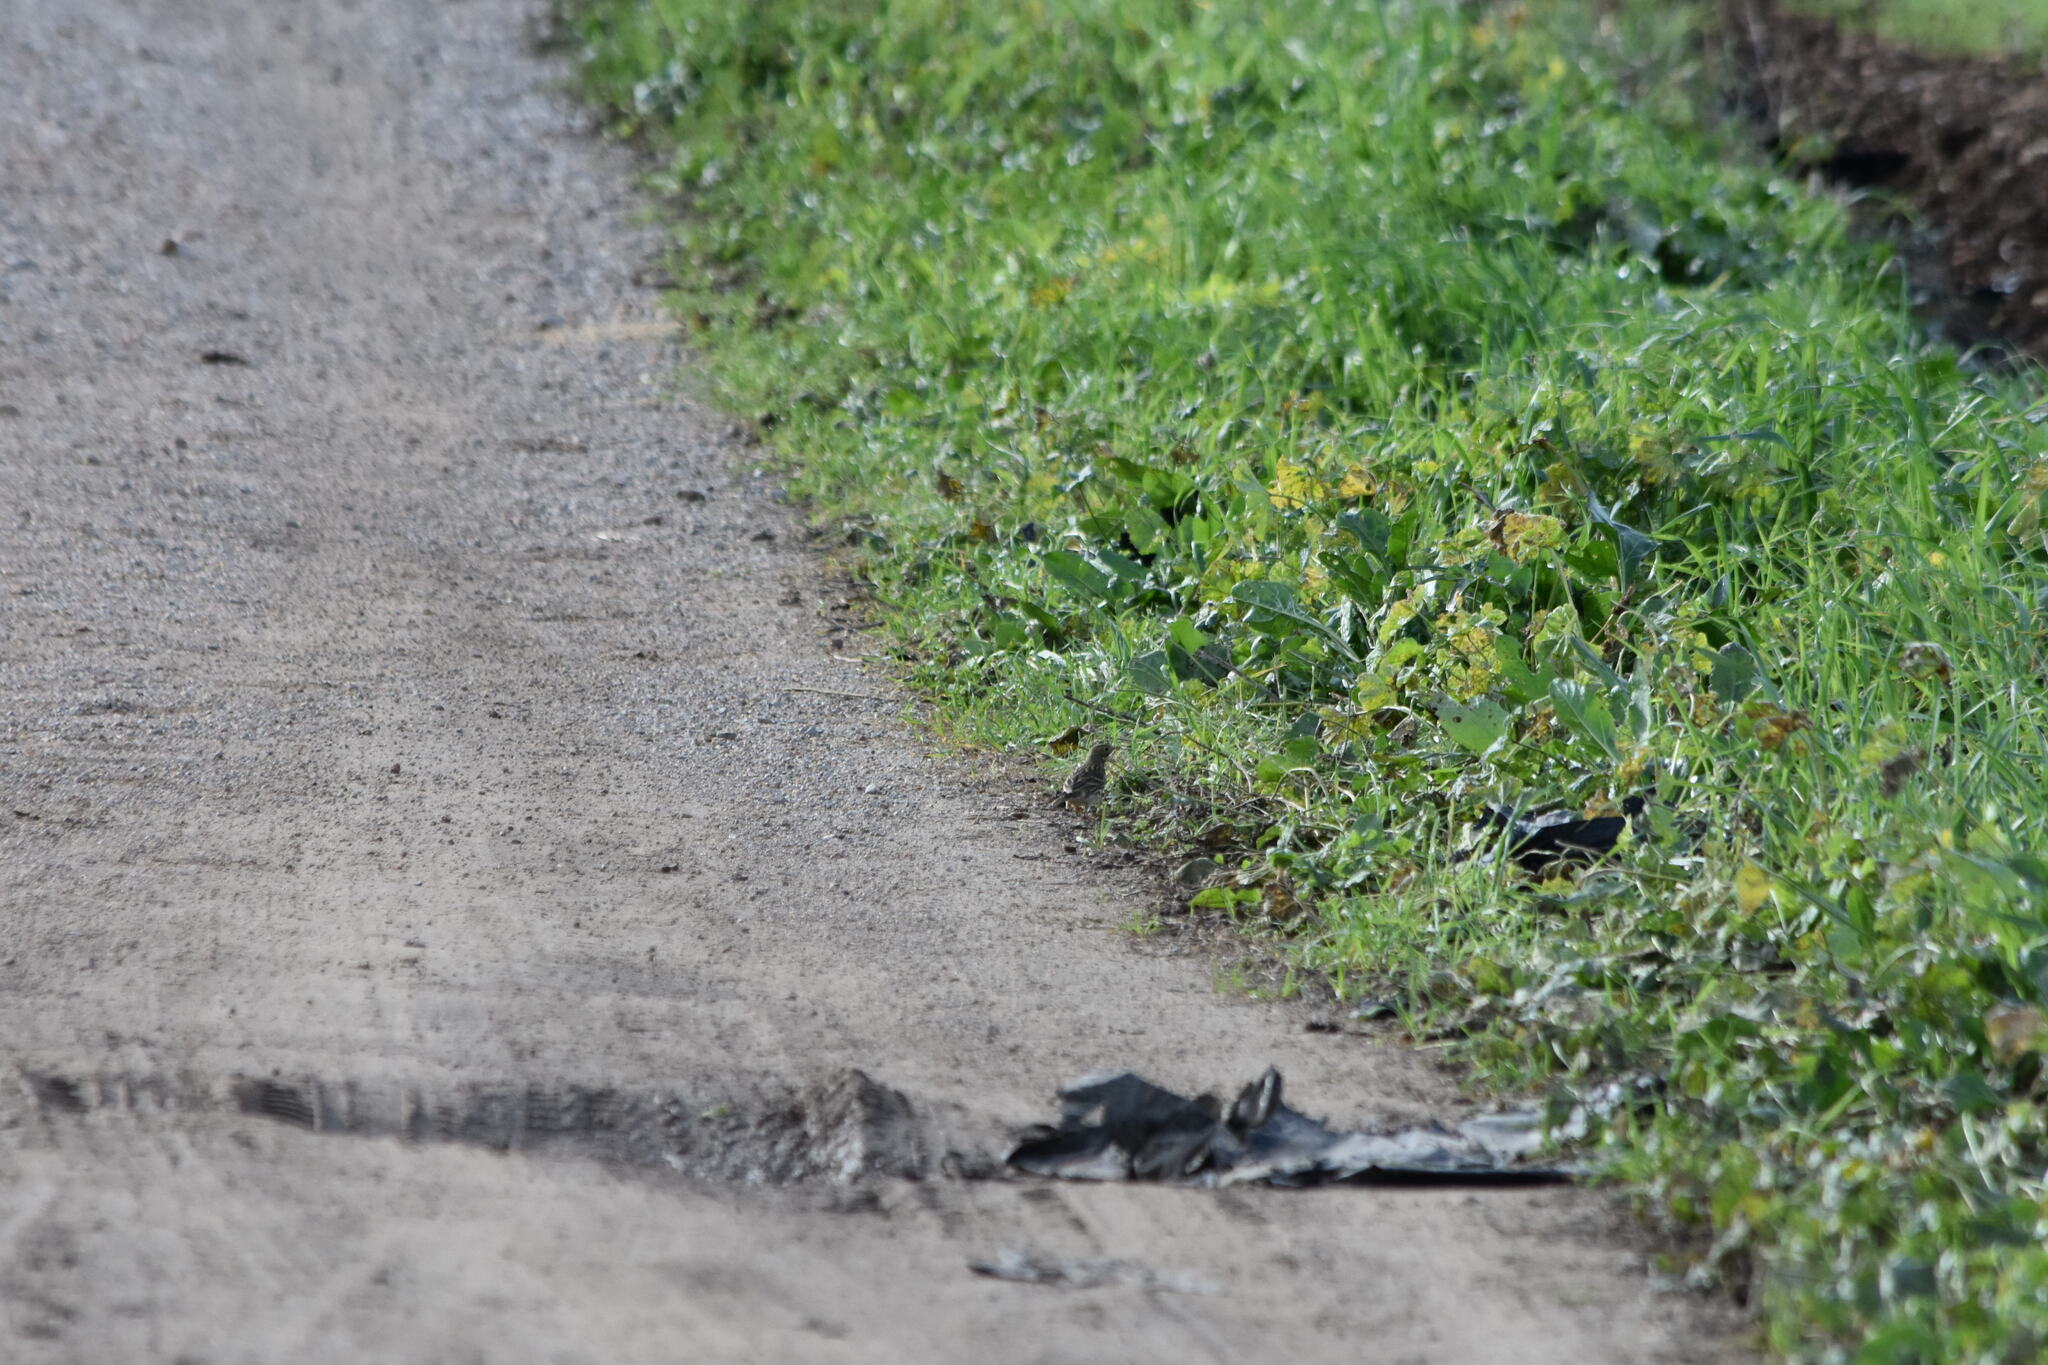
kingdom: Animalia
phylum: Chordata
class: Aves
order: Passeriformes
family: Motacillidae
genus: Anthus
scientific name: Anthus pratensis
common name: Meadow pipit
